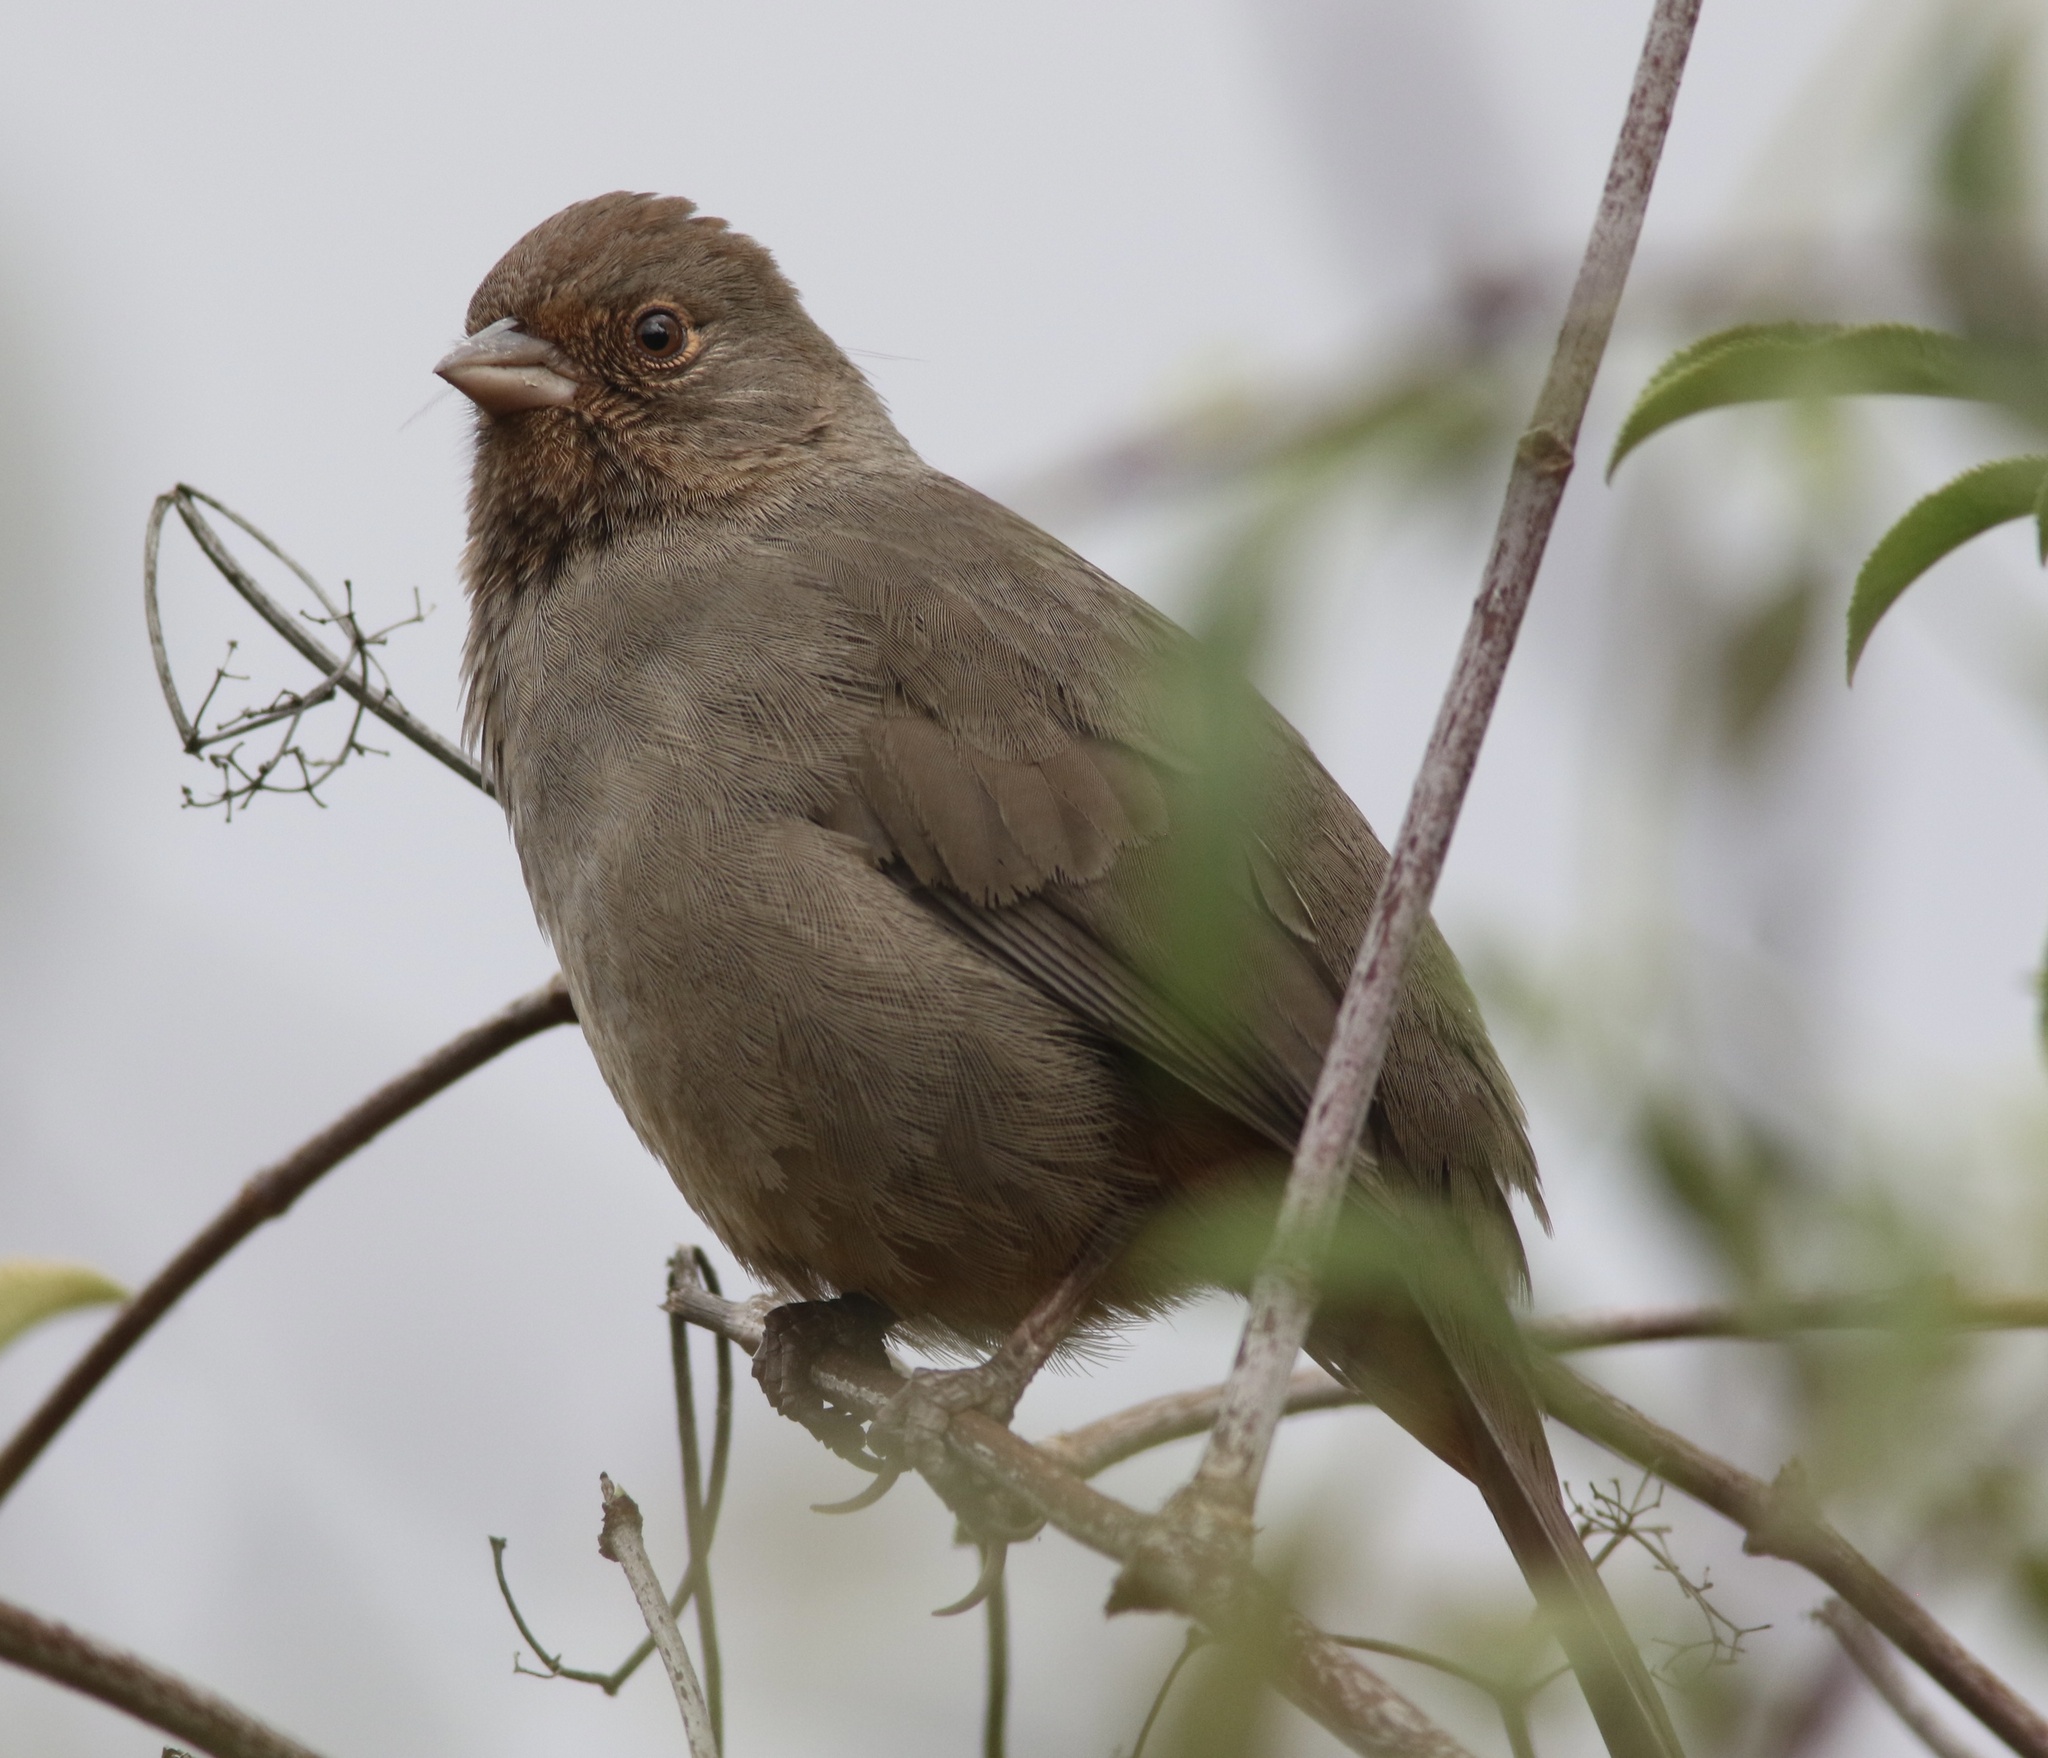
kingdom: Animalia
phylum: Chordata
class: Aves
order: Passeriformes
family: Passerellidae
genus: Melozone
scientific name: Melozone crissalis
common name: California towhee
